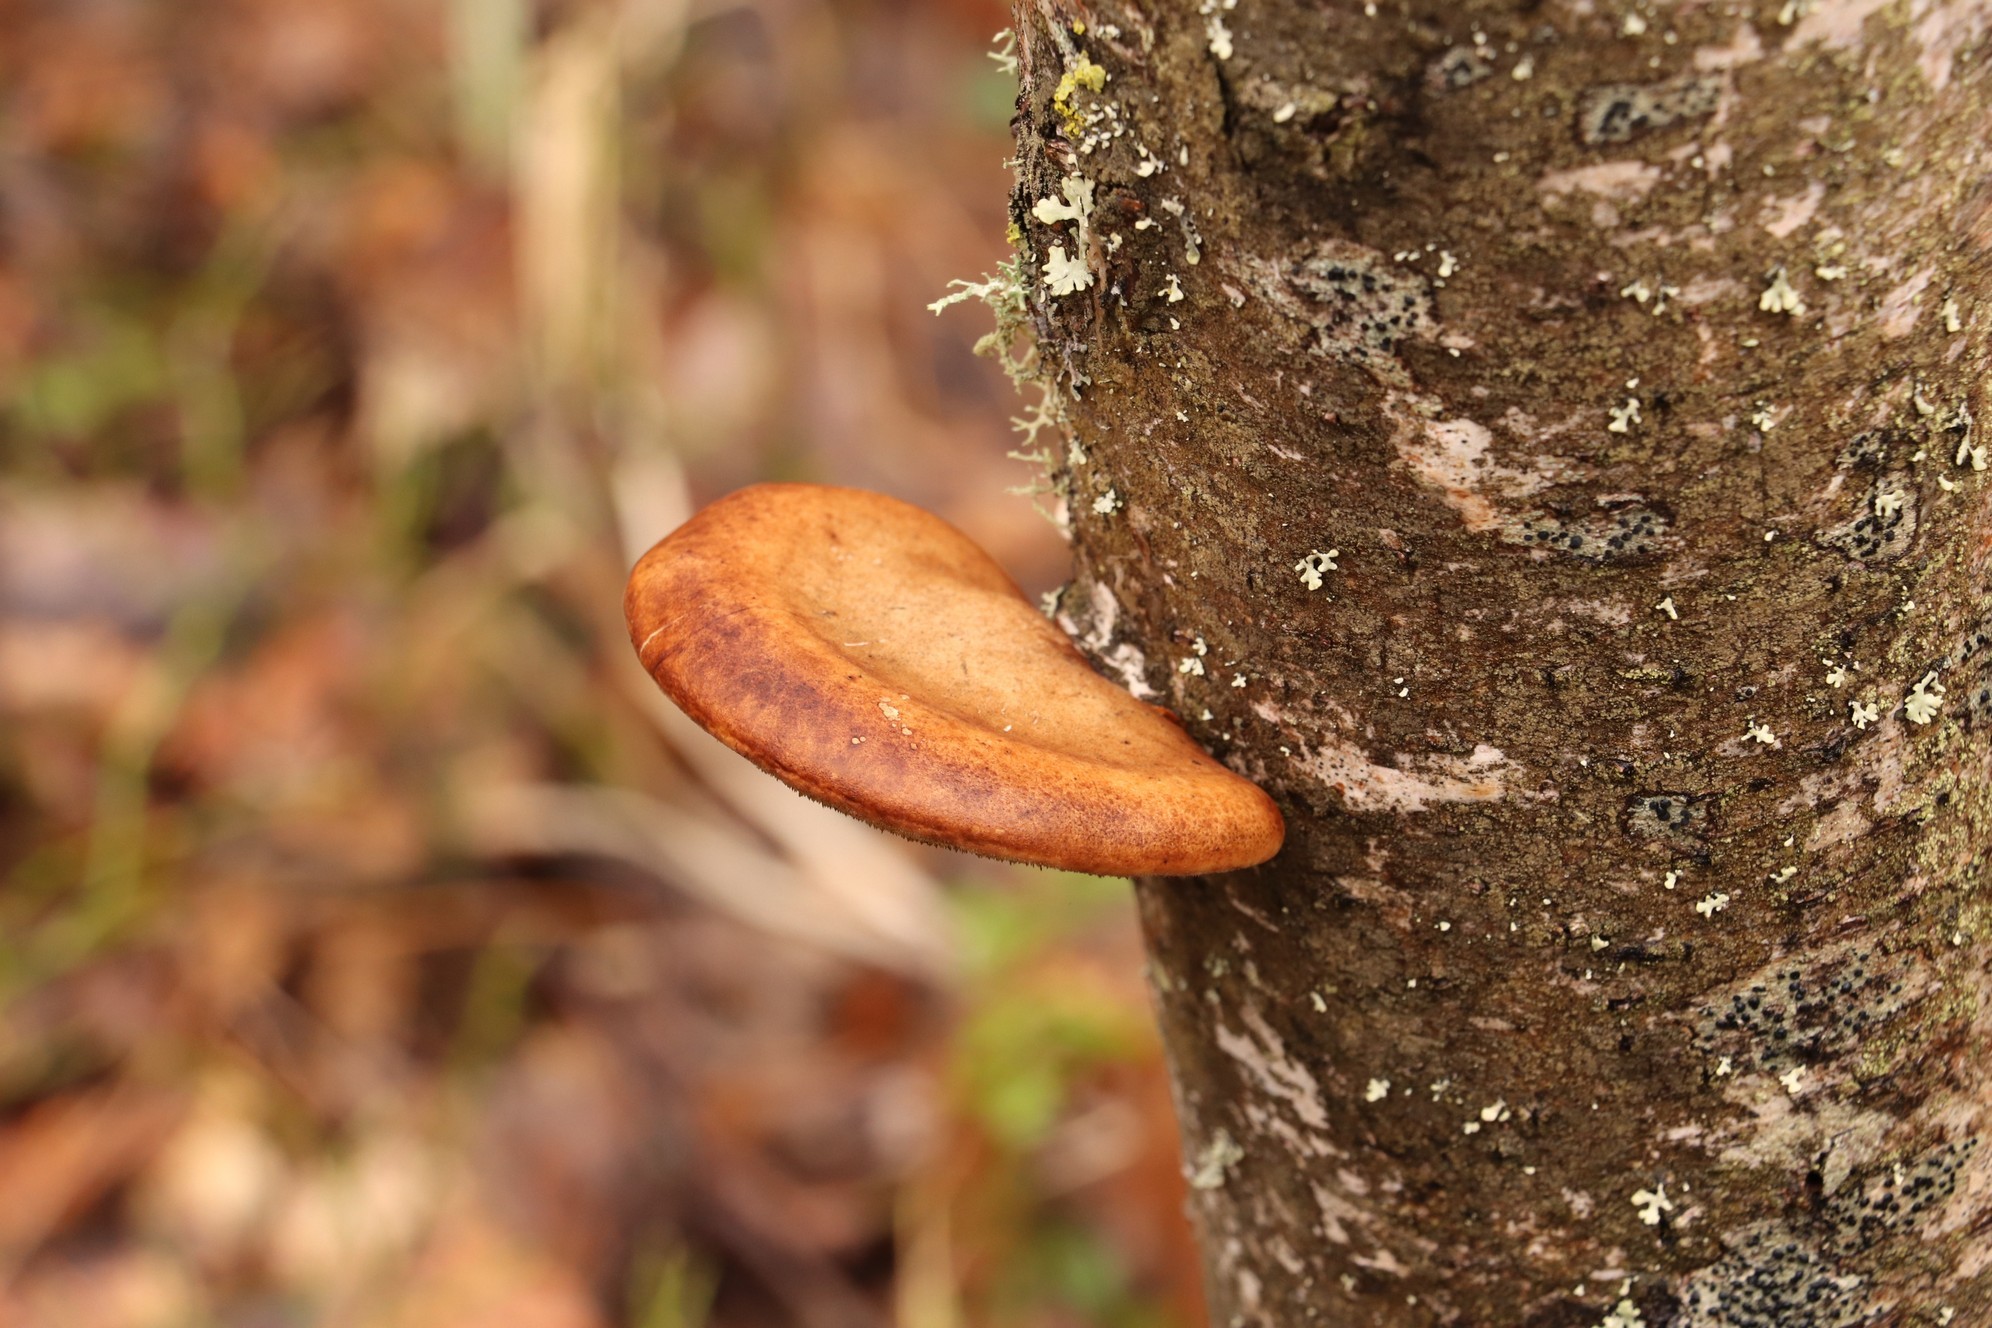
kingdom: Fungi
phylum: Basidiomycota
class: Agaricomycetes
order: Polyporales
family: Fomitopsidaceae
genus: Fomitopsis
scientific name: Fomitopsis betulina
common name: Birch polypore
